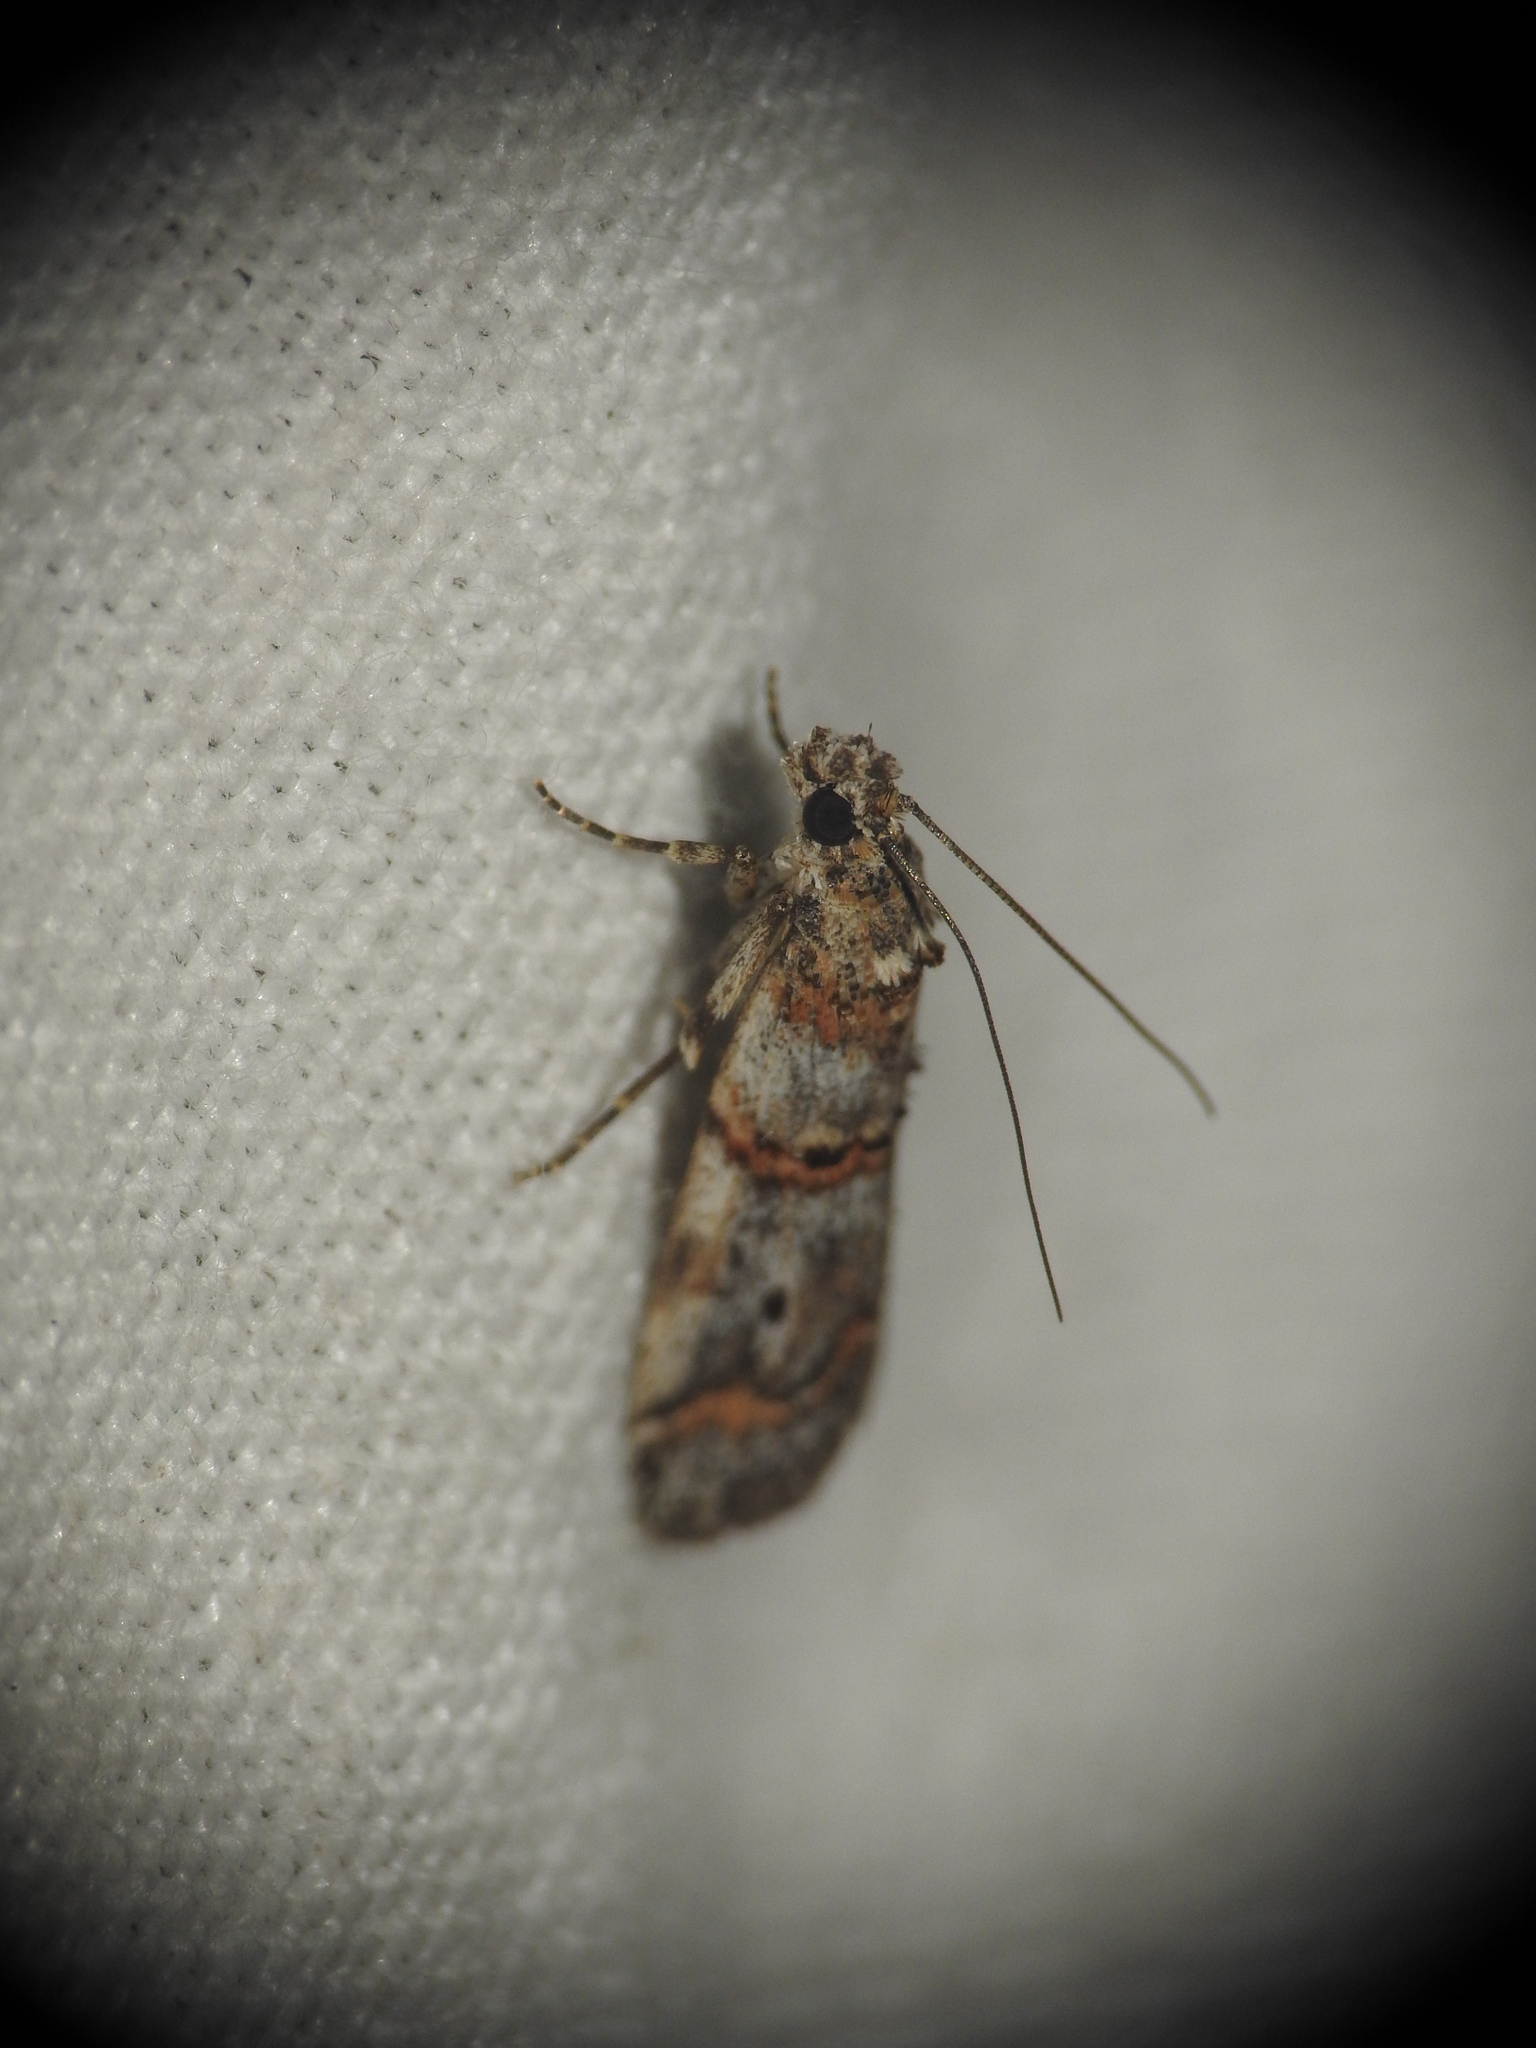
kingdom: Animalia
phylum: Arthropoda
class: Insecta
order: Lepidoptera
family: Pyralidae
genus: Acrobasis
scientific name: Acrobasis advenella
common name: Grey knot-horn
